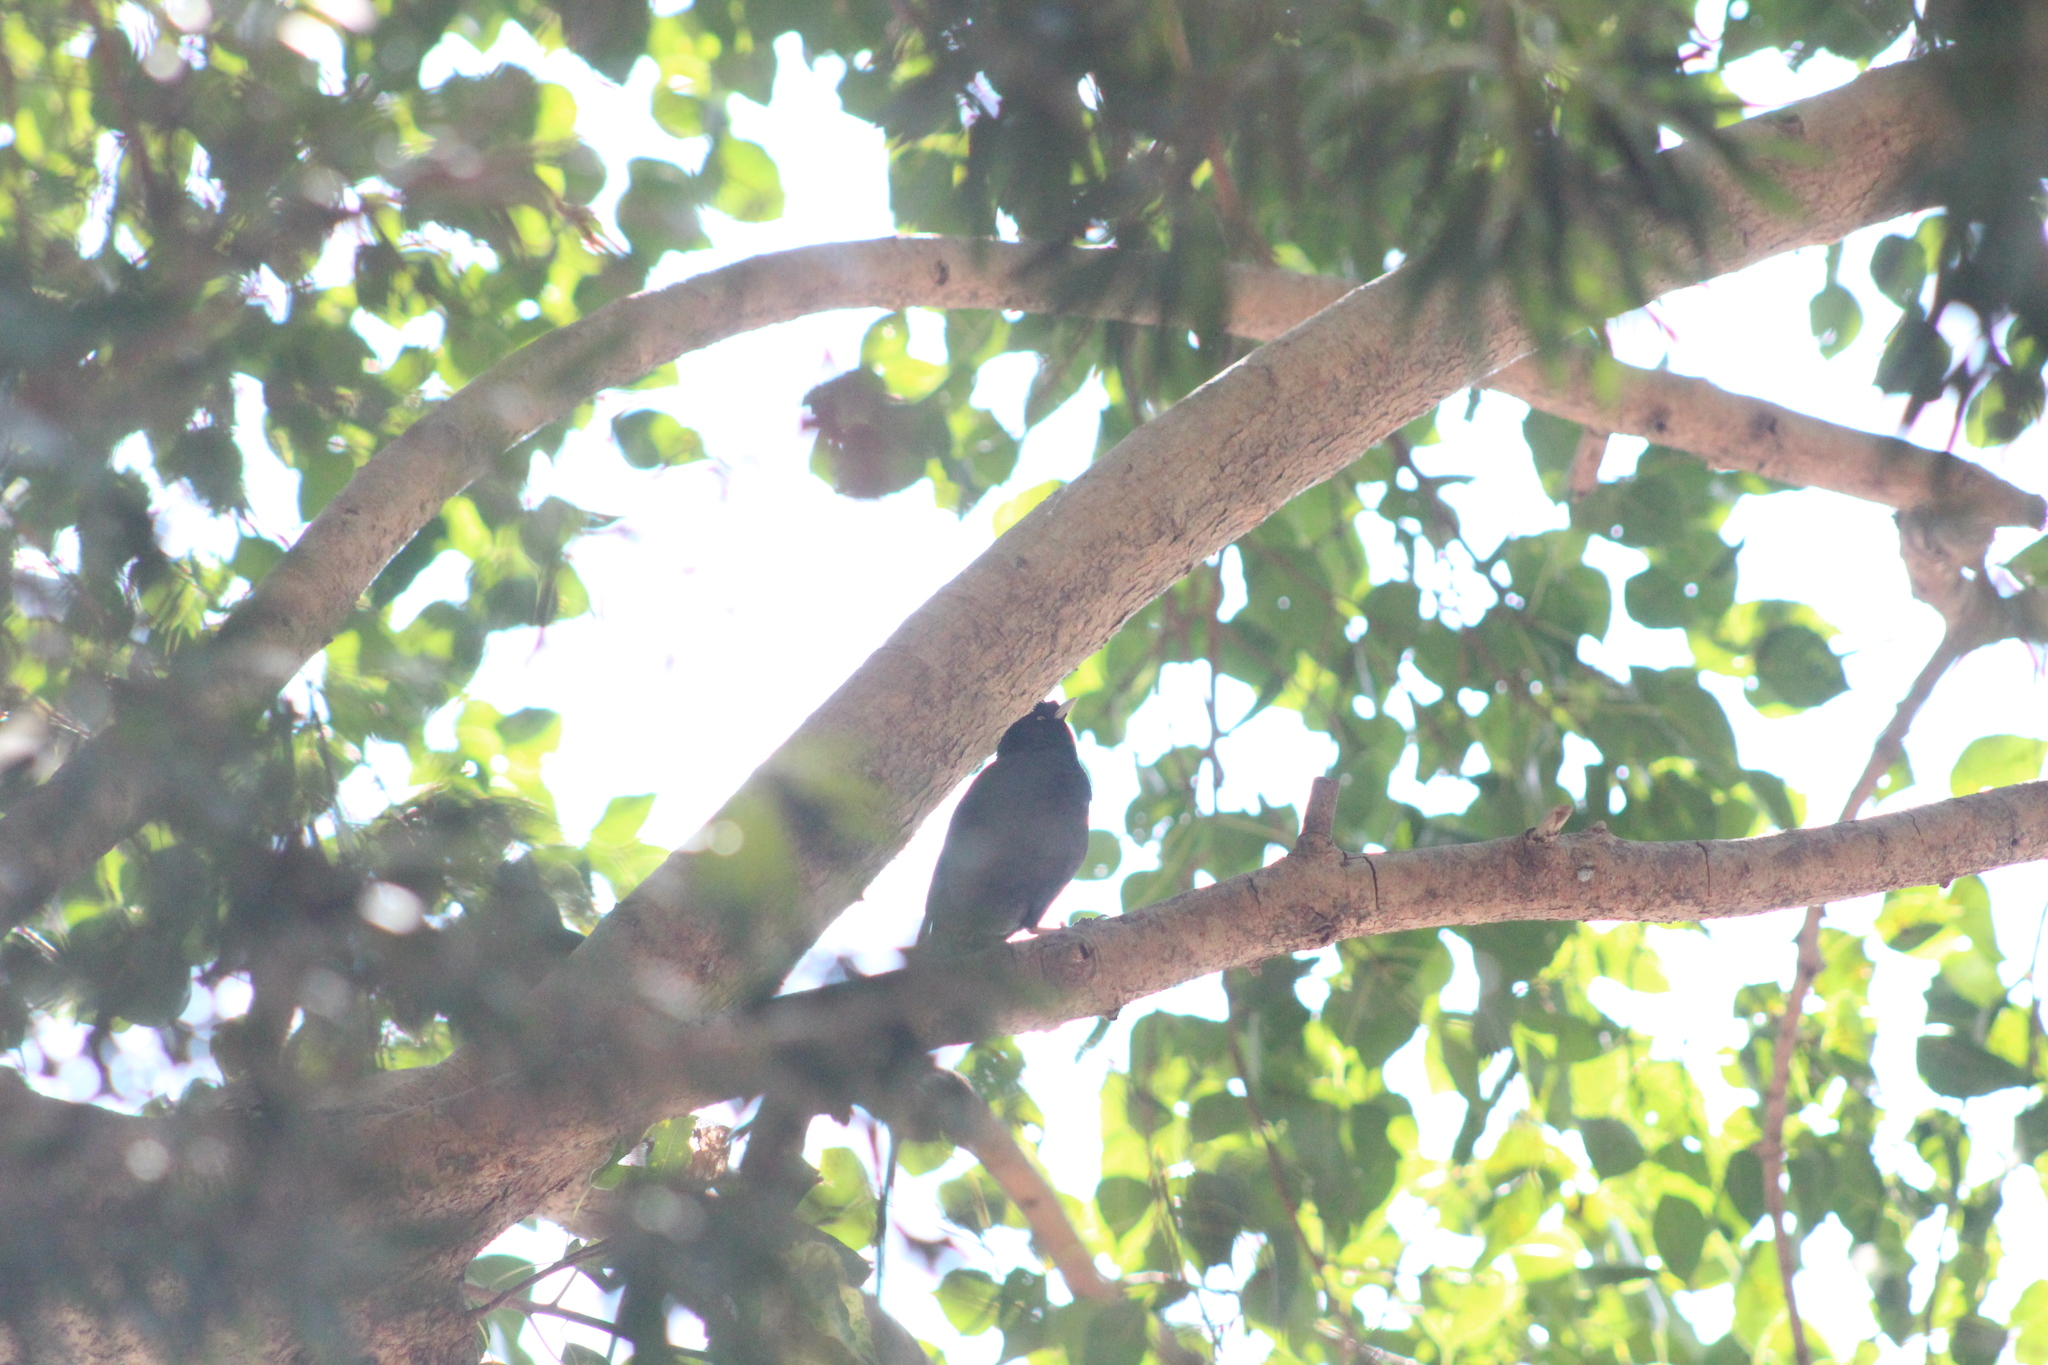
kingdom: Animalia
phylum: Chordata
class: Aves
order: Passeriformes
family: Sturnidae
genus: Acridotheres
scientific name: Acridotheres cristatellus
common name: Crested myna
